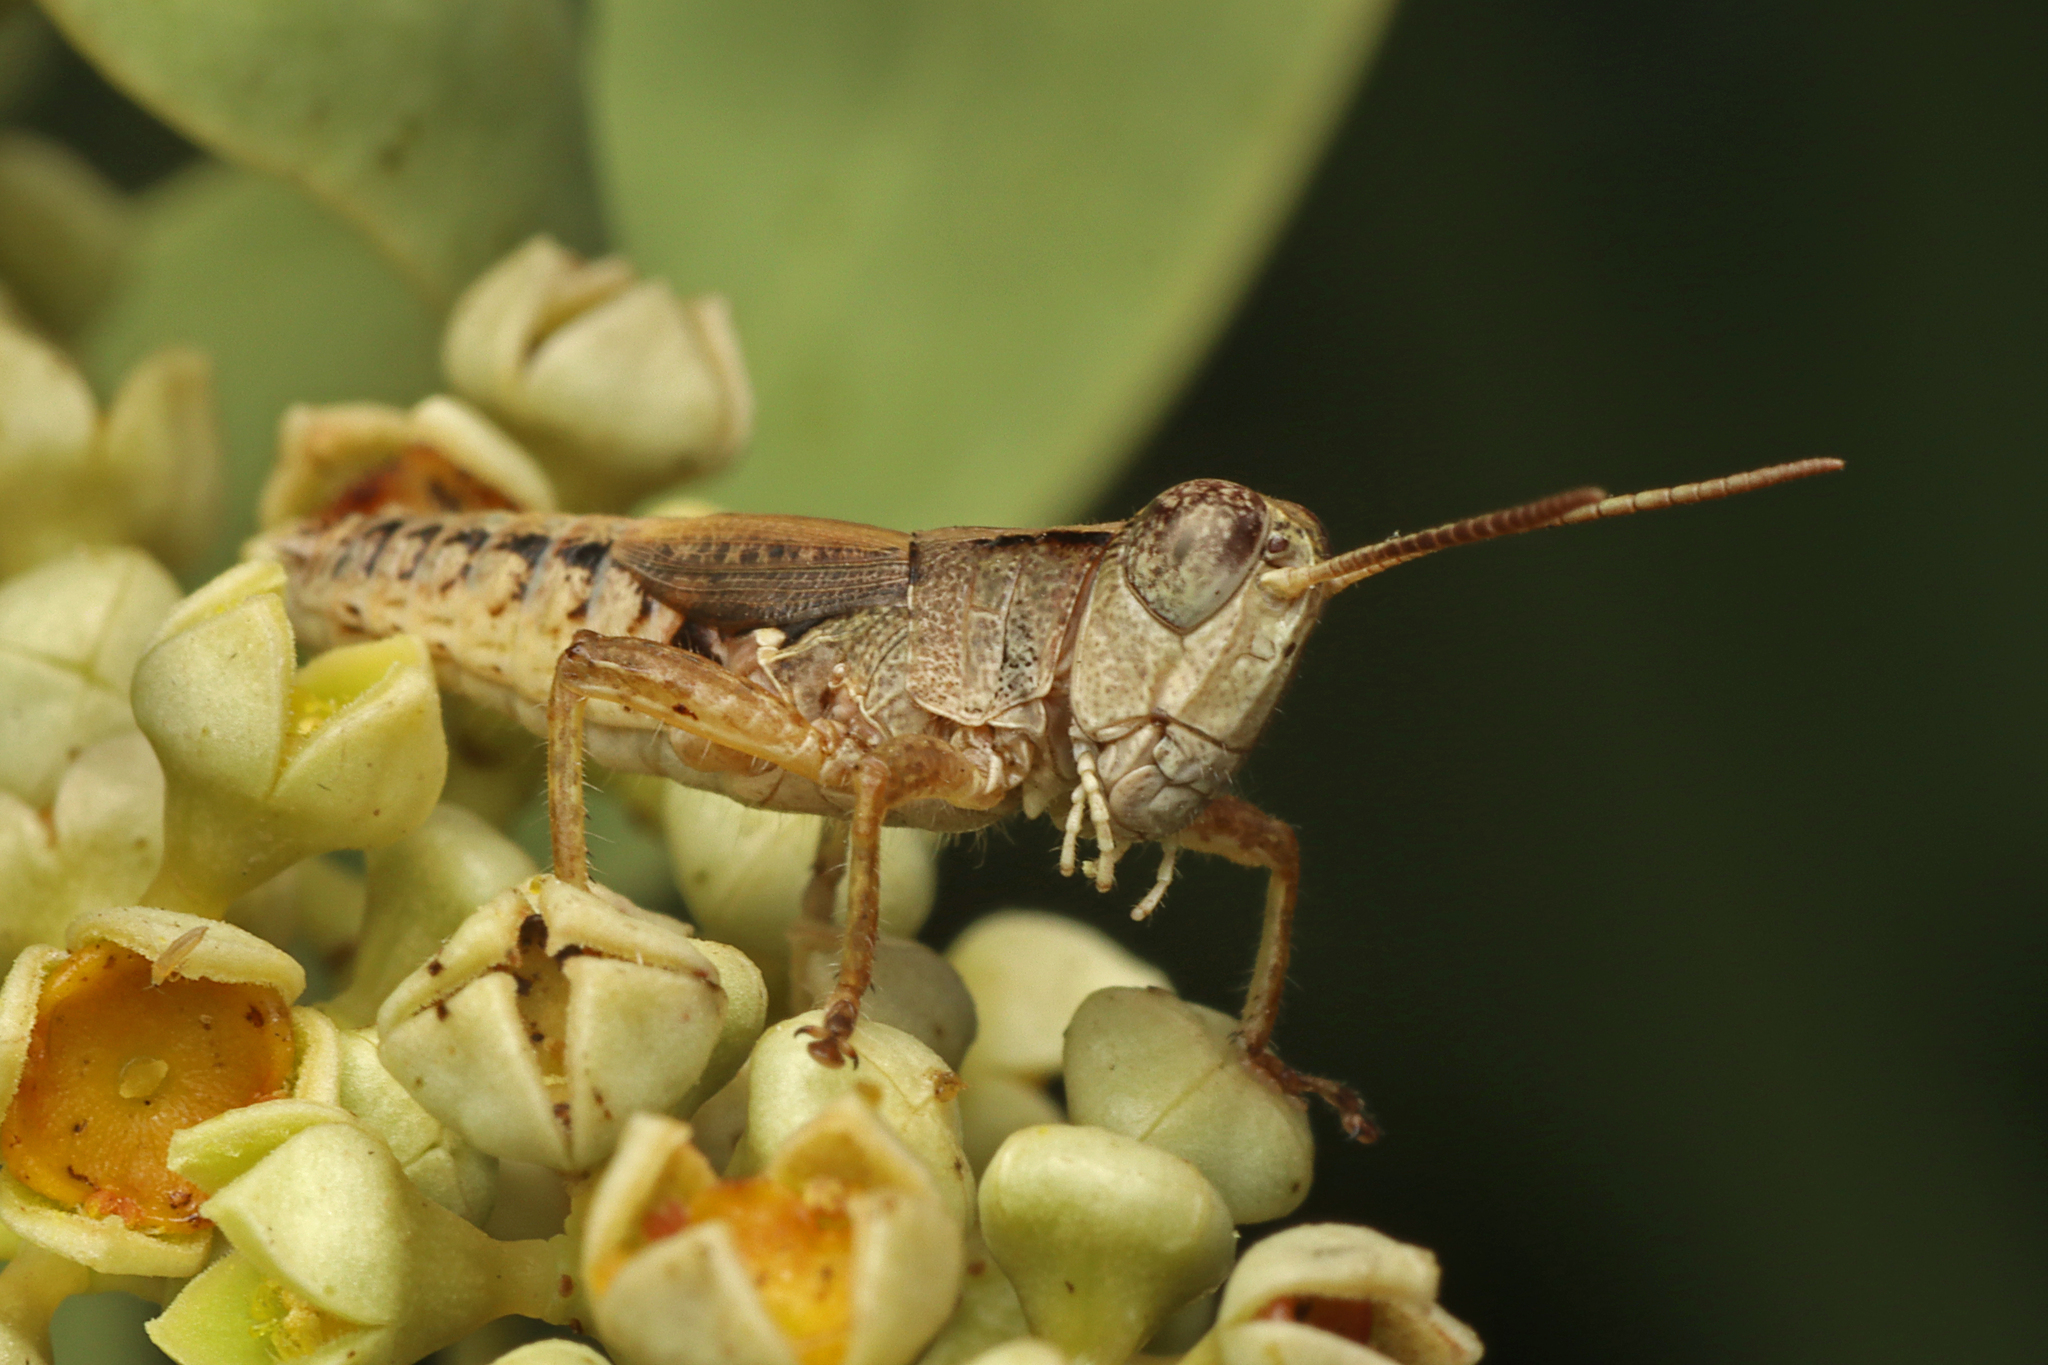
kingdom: Animalia
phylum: Arthropoda
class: Insecta
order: Orthoptera
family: Acrididae
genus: Phaulacridium
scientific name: Phaulacridium vittatum
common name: Wingless grasshopper
